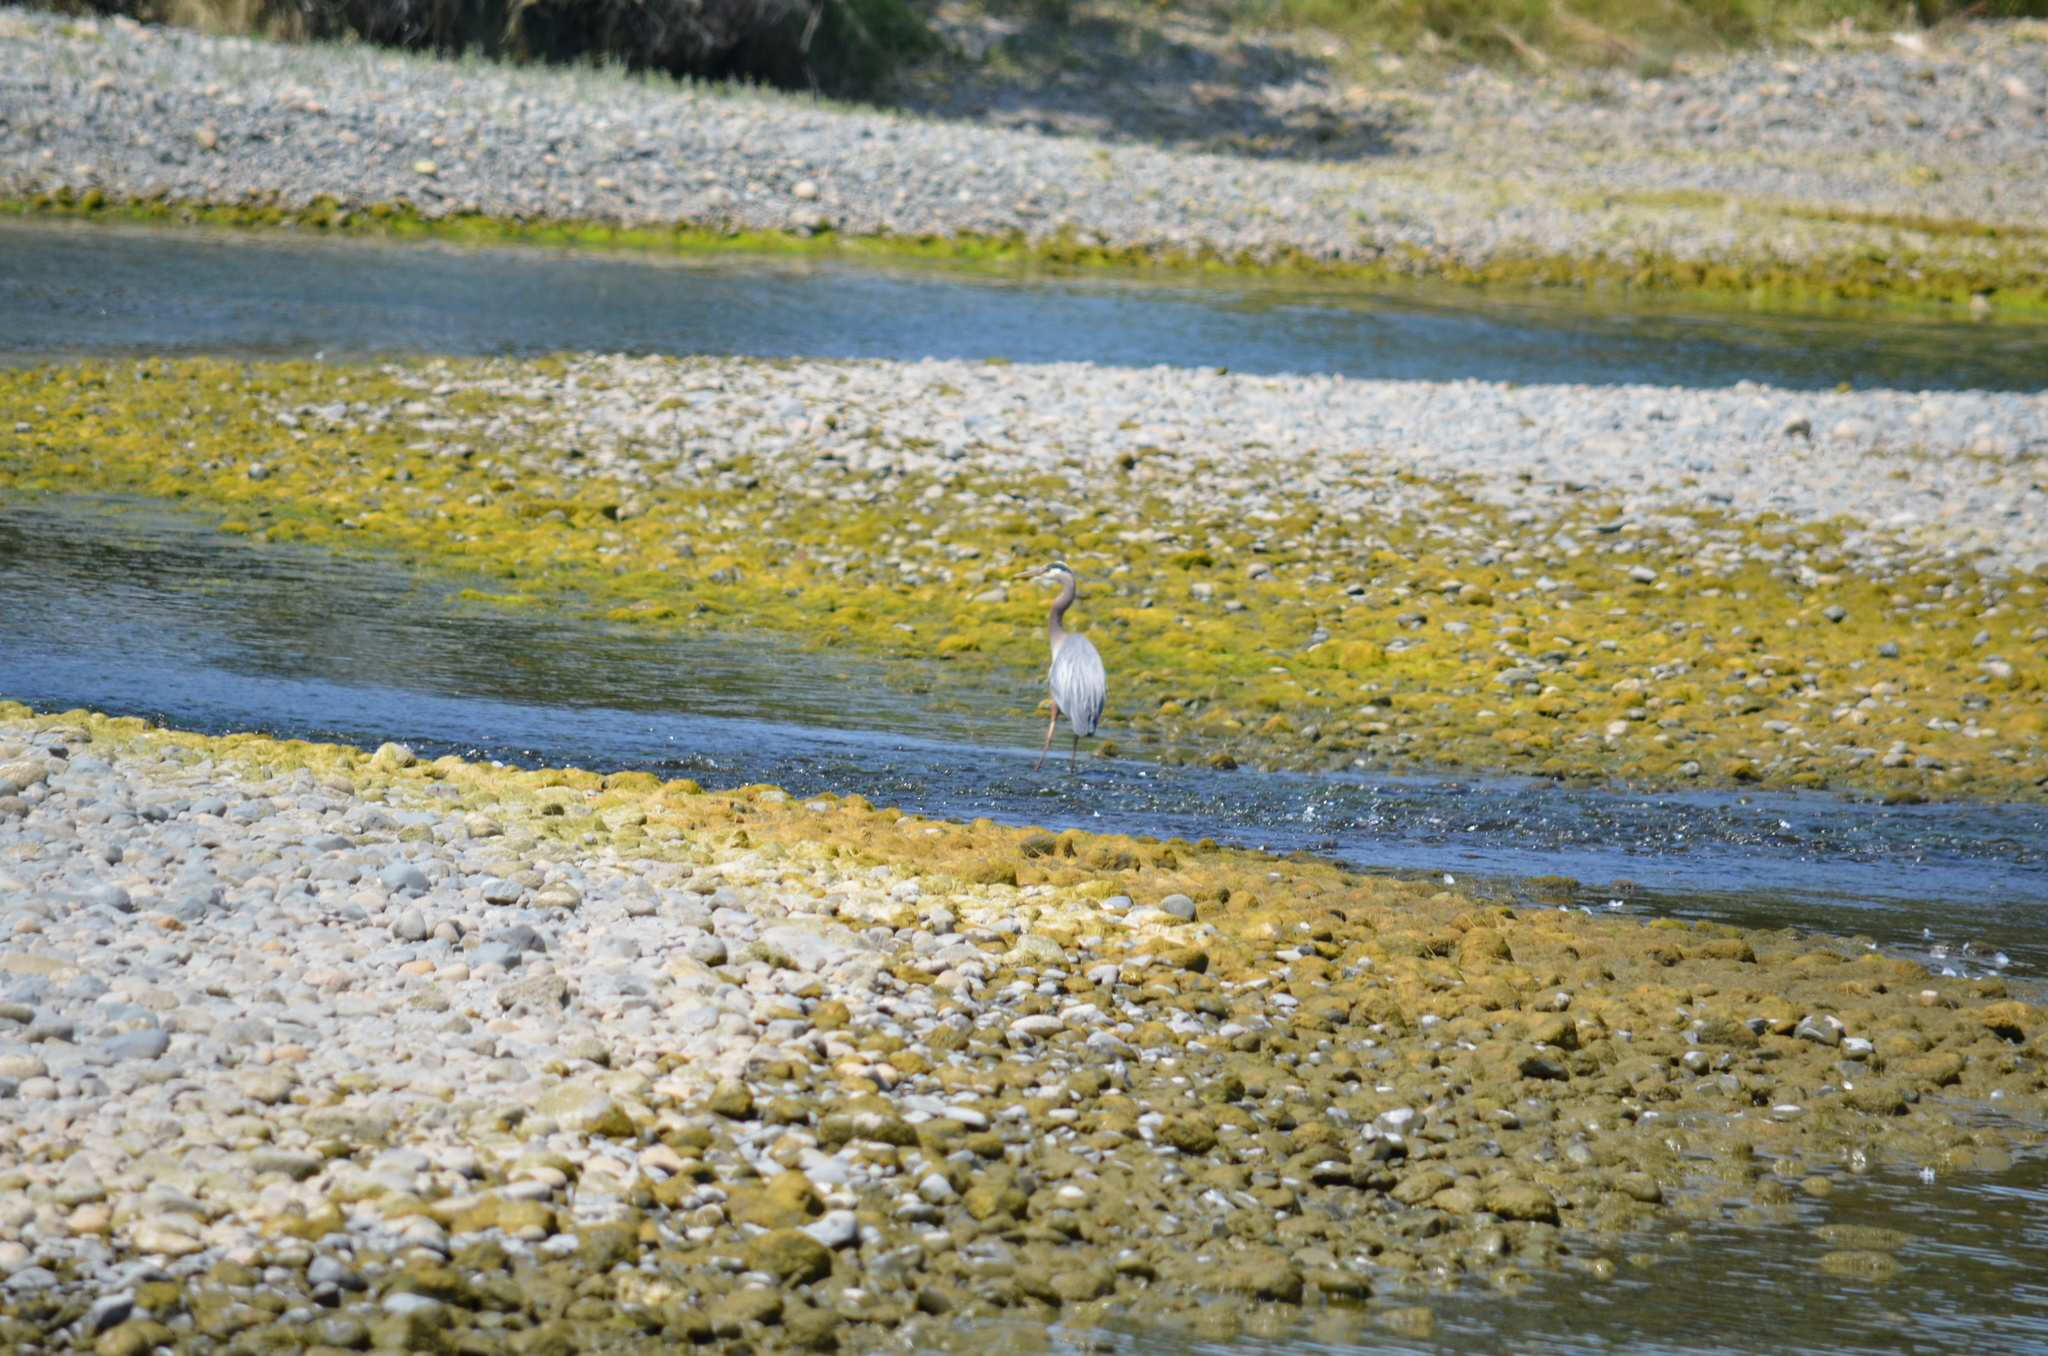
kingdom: Animalia
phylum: Chordata
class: Aves
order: Pelecaniformes
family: Ardeidae
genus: Ardea
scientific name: Ardea herodias
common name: Great blue heron
